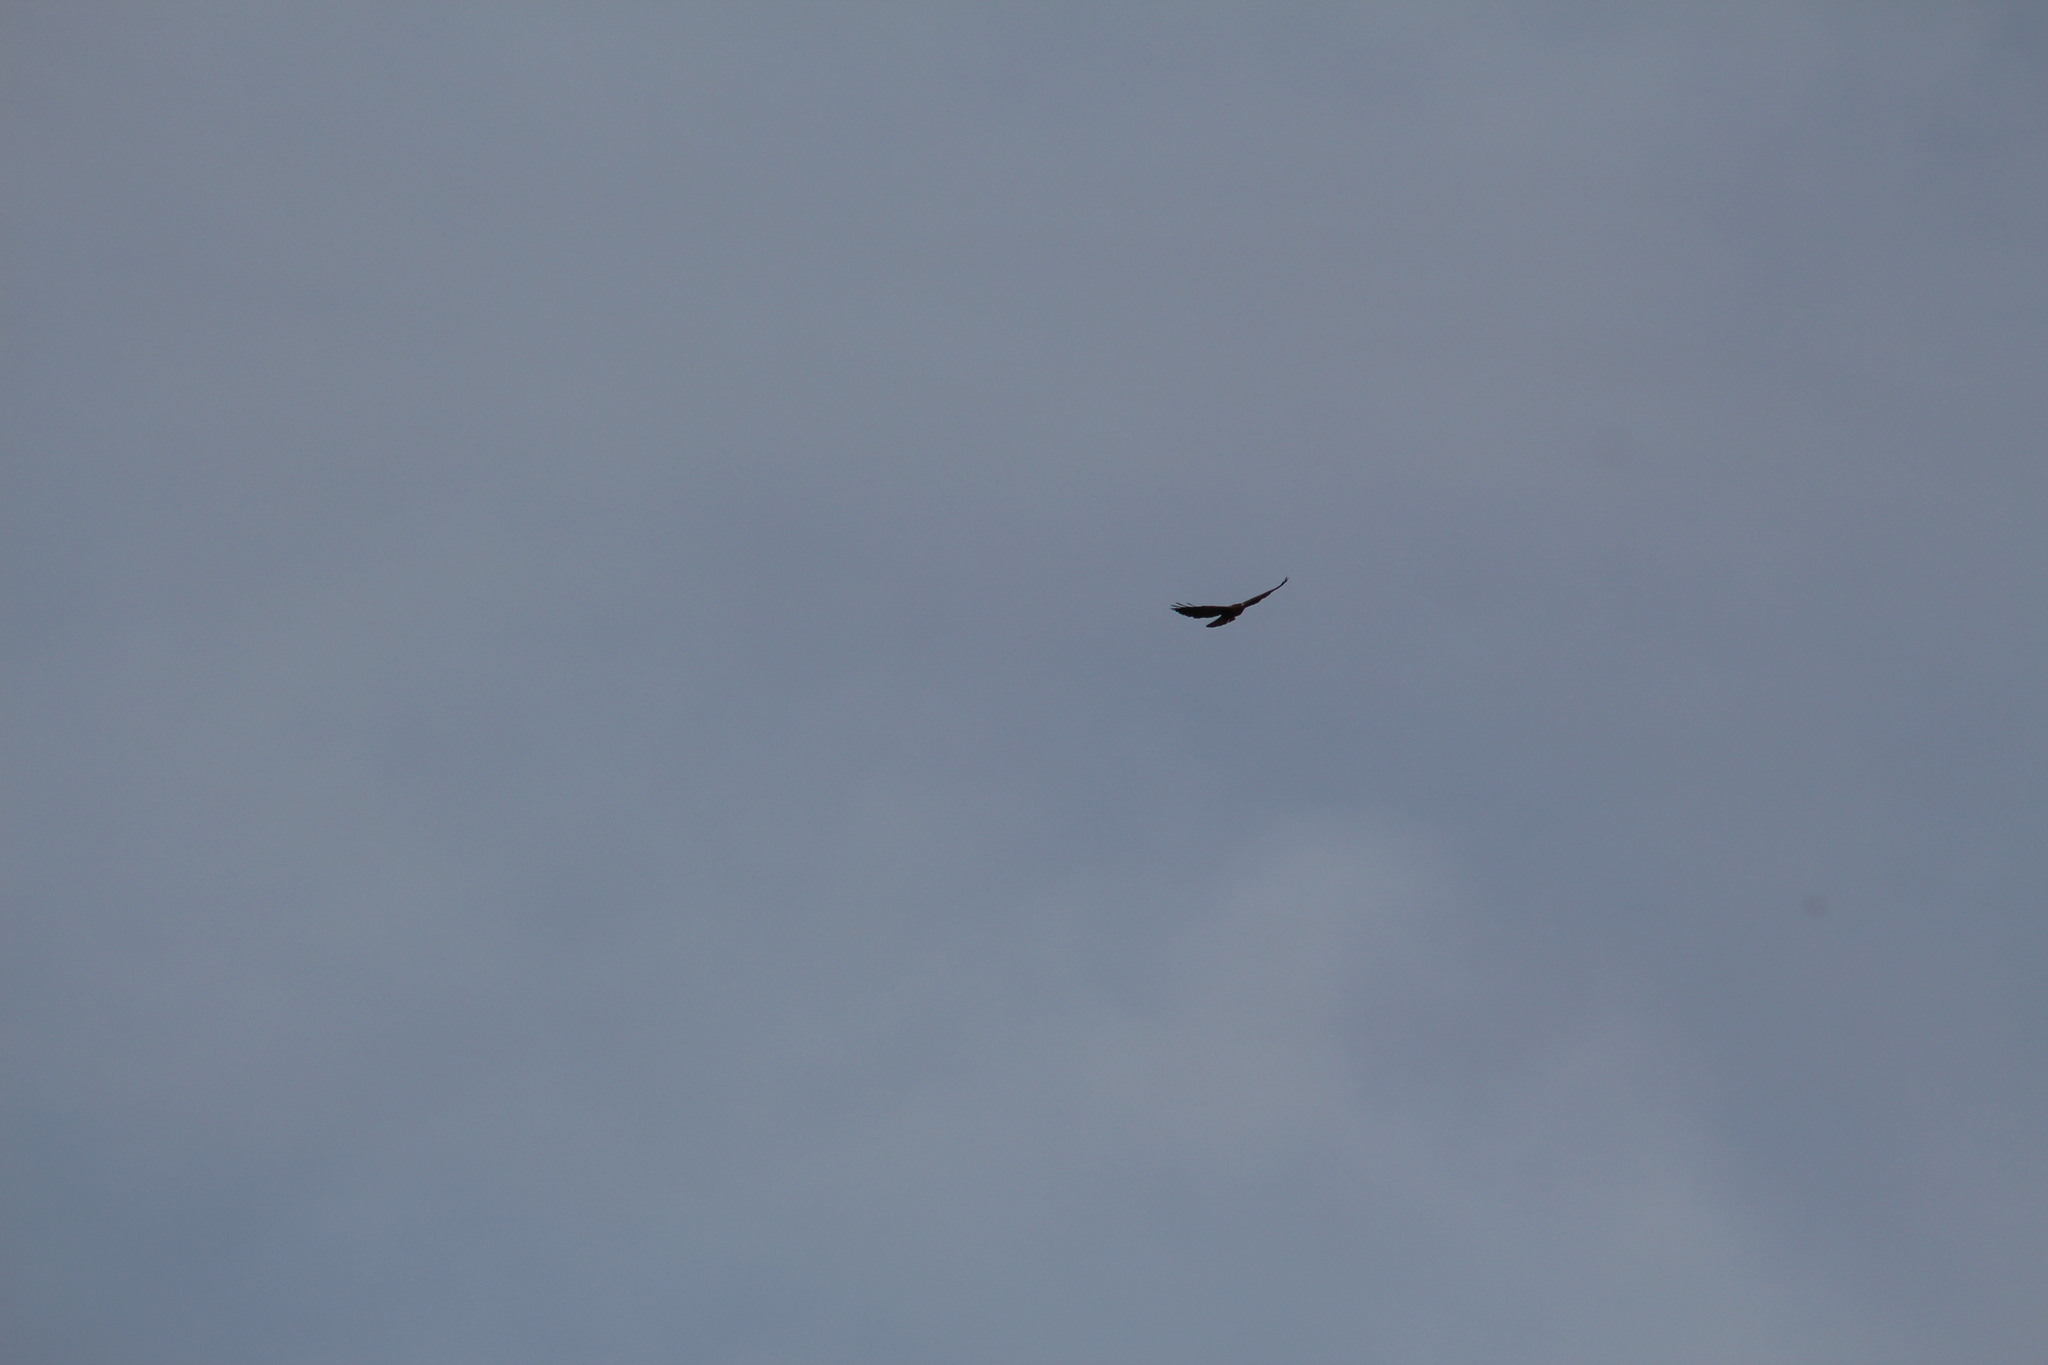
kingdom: Animalia
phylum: Chordata
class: Aves
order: Accipitriformes
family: Accipitridae
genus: Buteo
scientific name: Buteo swainsoni
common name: Swainson's hawk
